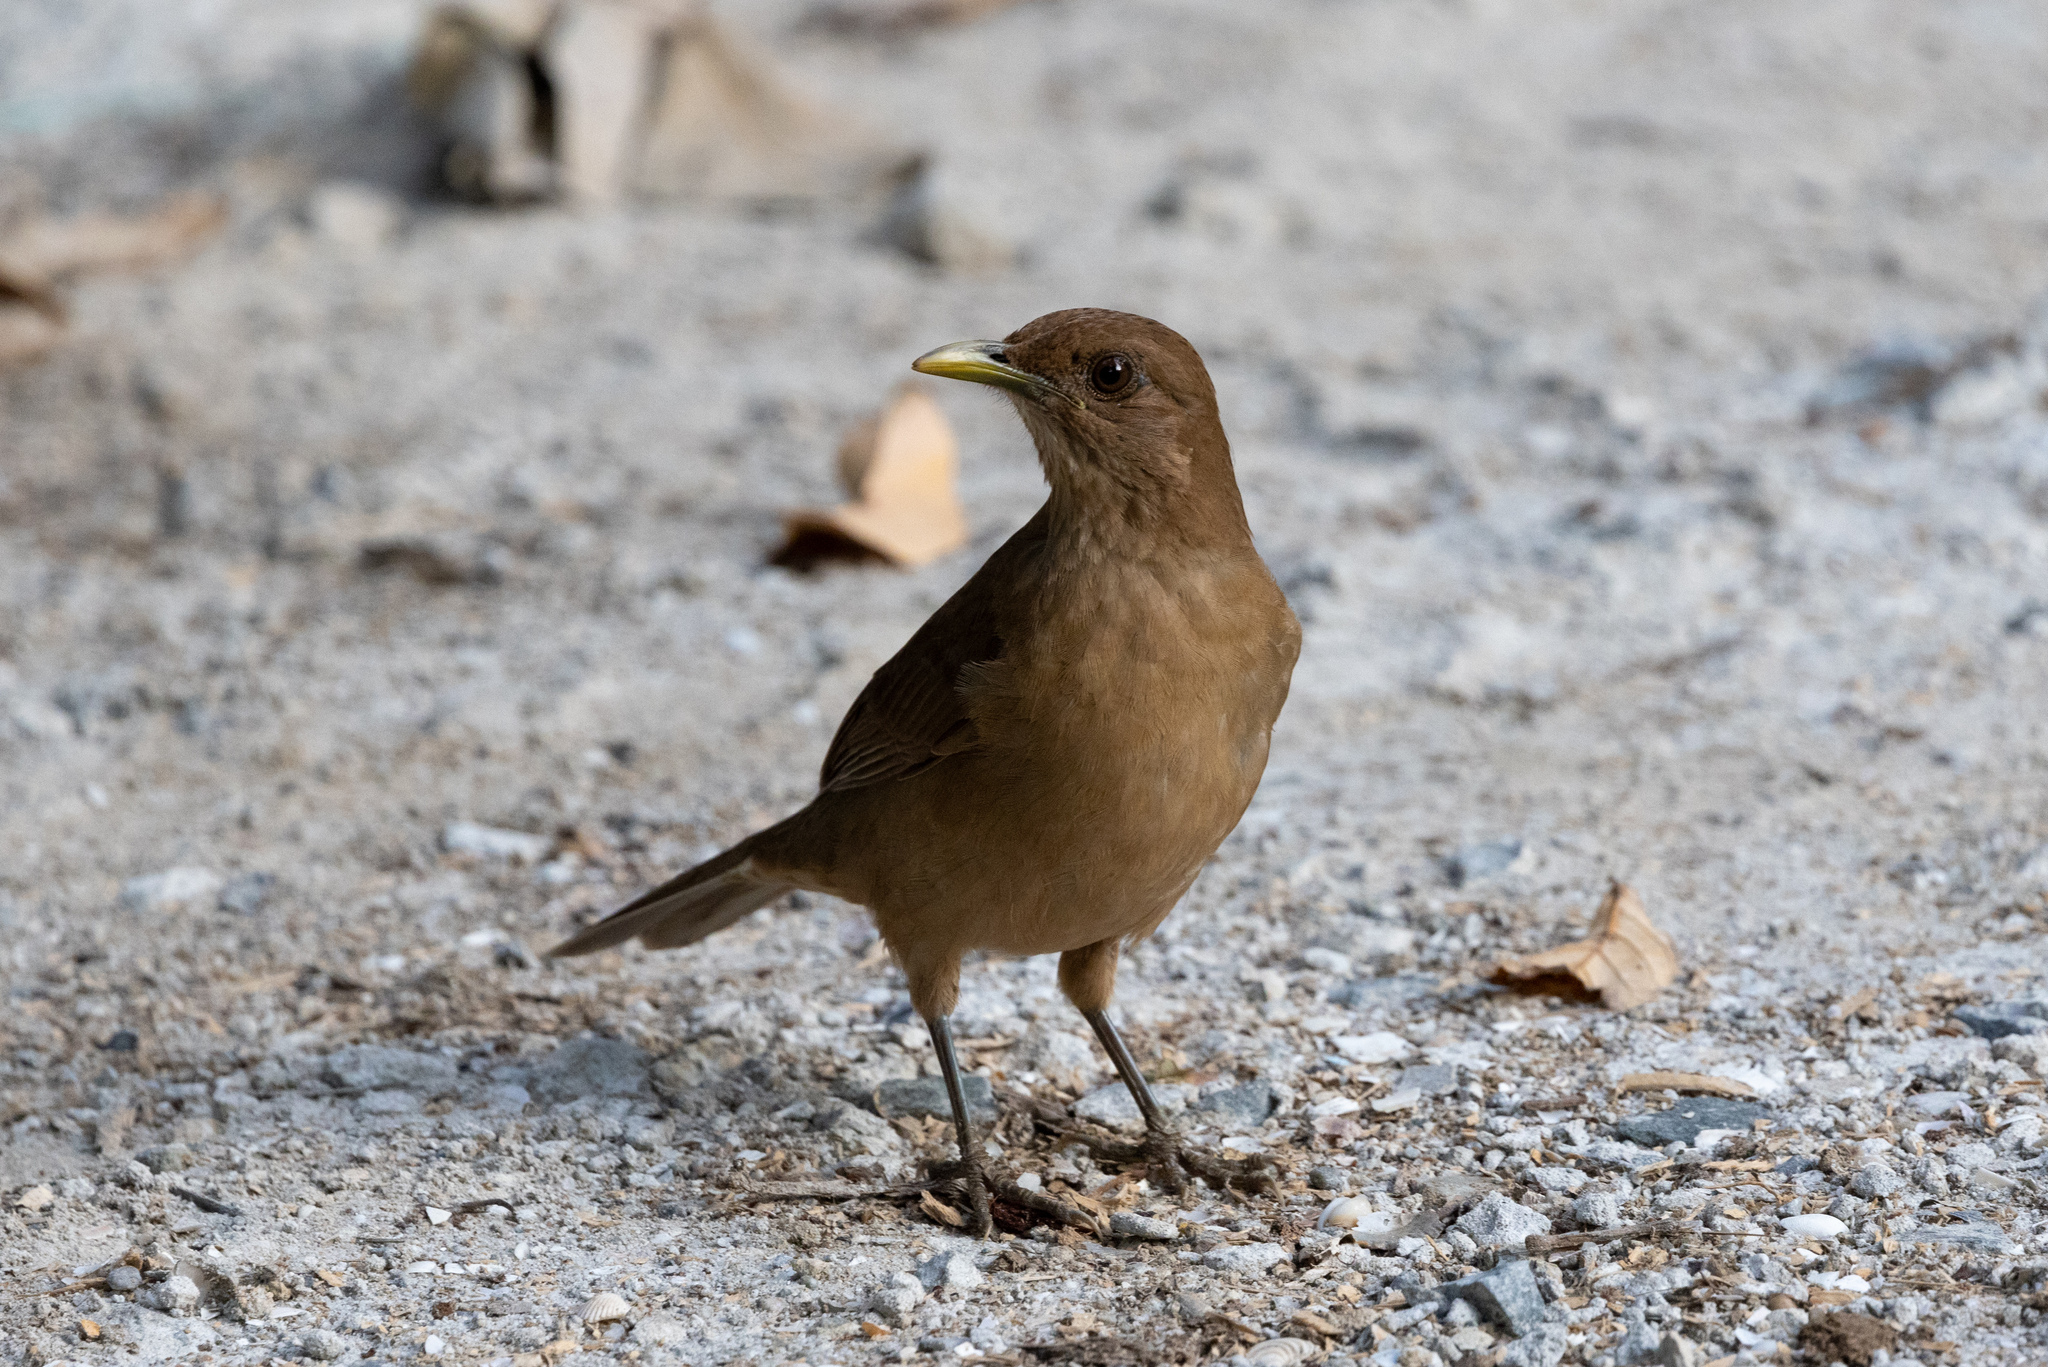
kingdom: Animalia
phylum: Chordata
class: Aves
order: Passeriformes
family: Turdidae
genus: Turdus
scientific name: Turdus grayi
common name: Clay-colored thrush
